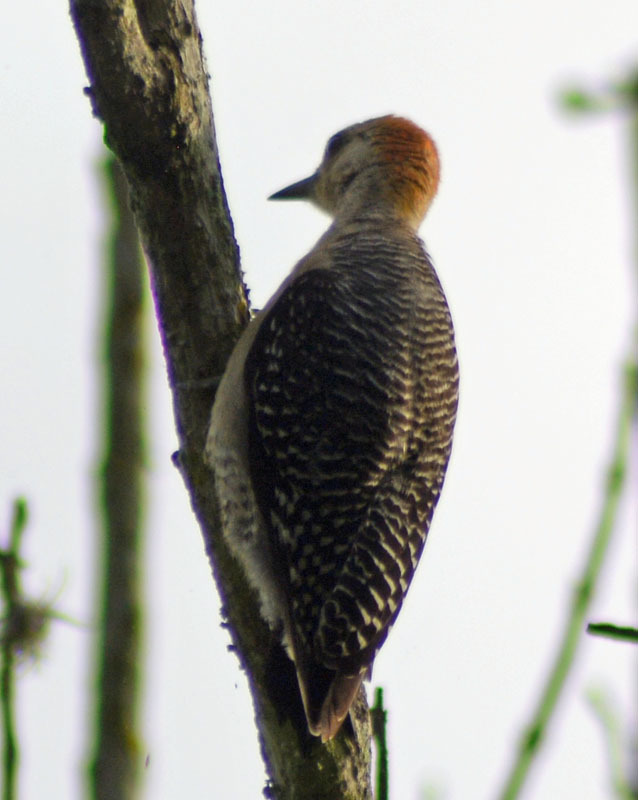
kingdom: Animalia
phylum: Chordata
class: Aves
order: Piciformes
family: Picidae
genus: Melanerpes
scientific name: Melanerpes aurifrons
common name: Golden-fronted woodpecker
